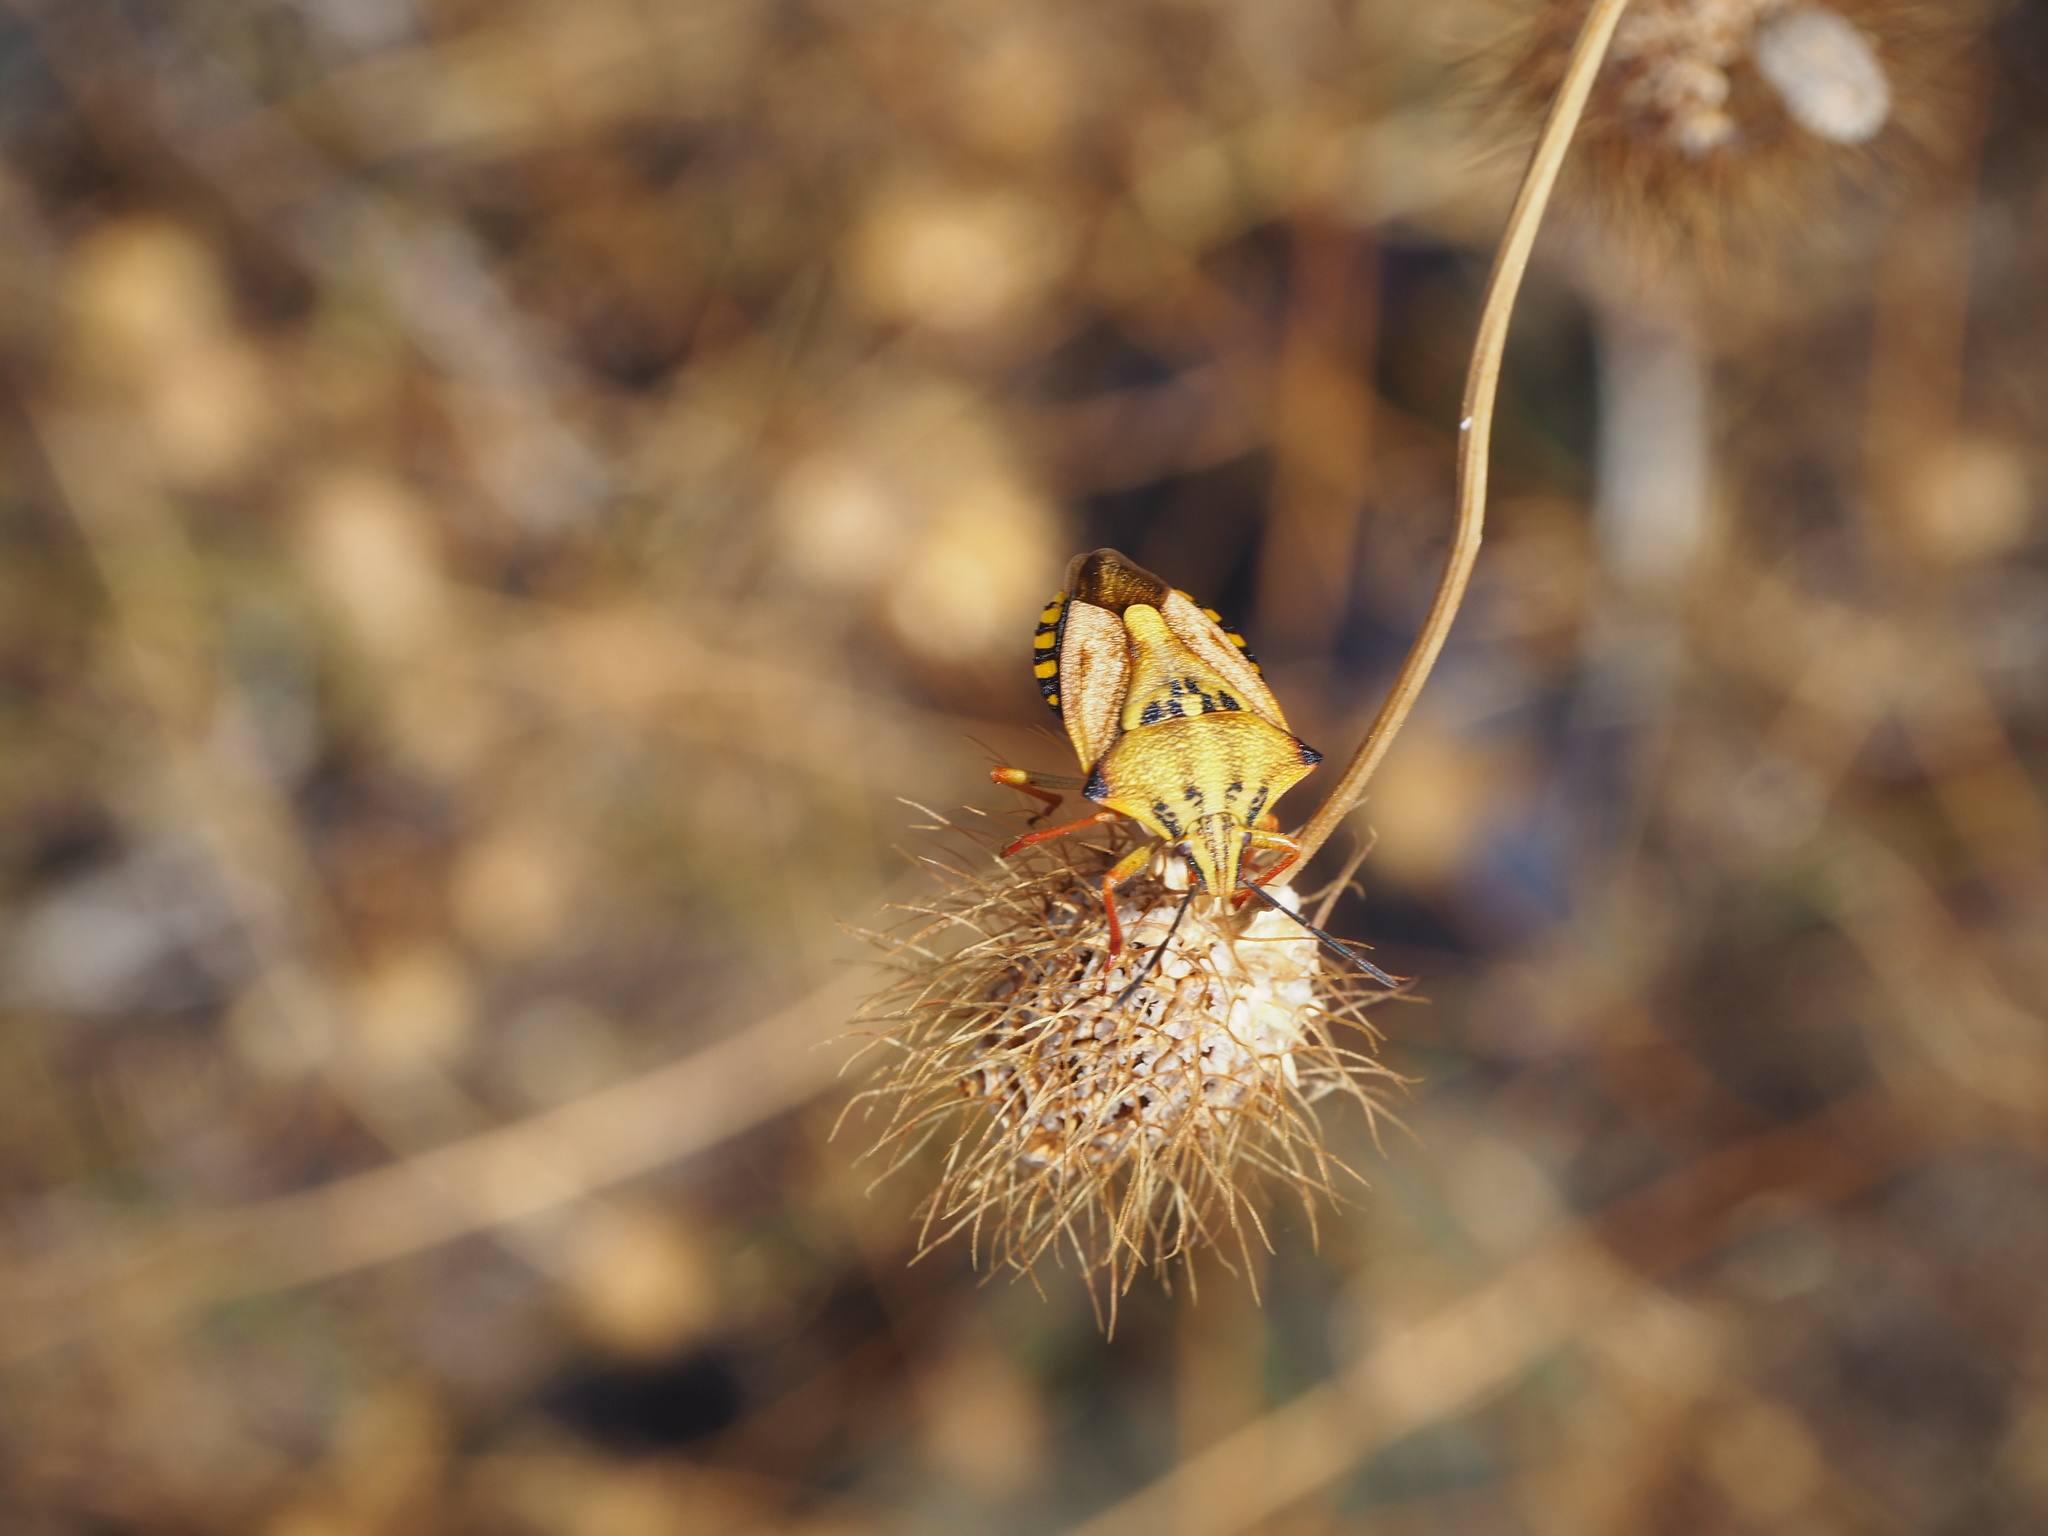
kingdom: Animalia
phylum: Arthropoda
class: Insecta
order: Hemiptera
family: Pentatomidae
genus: Carpocoris
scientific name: Carpocoris mediterraneus
